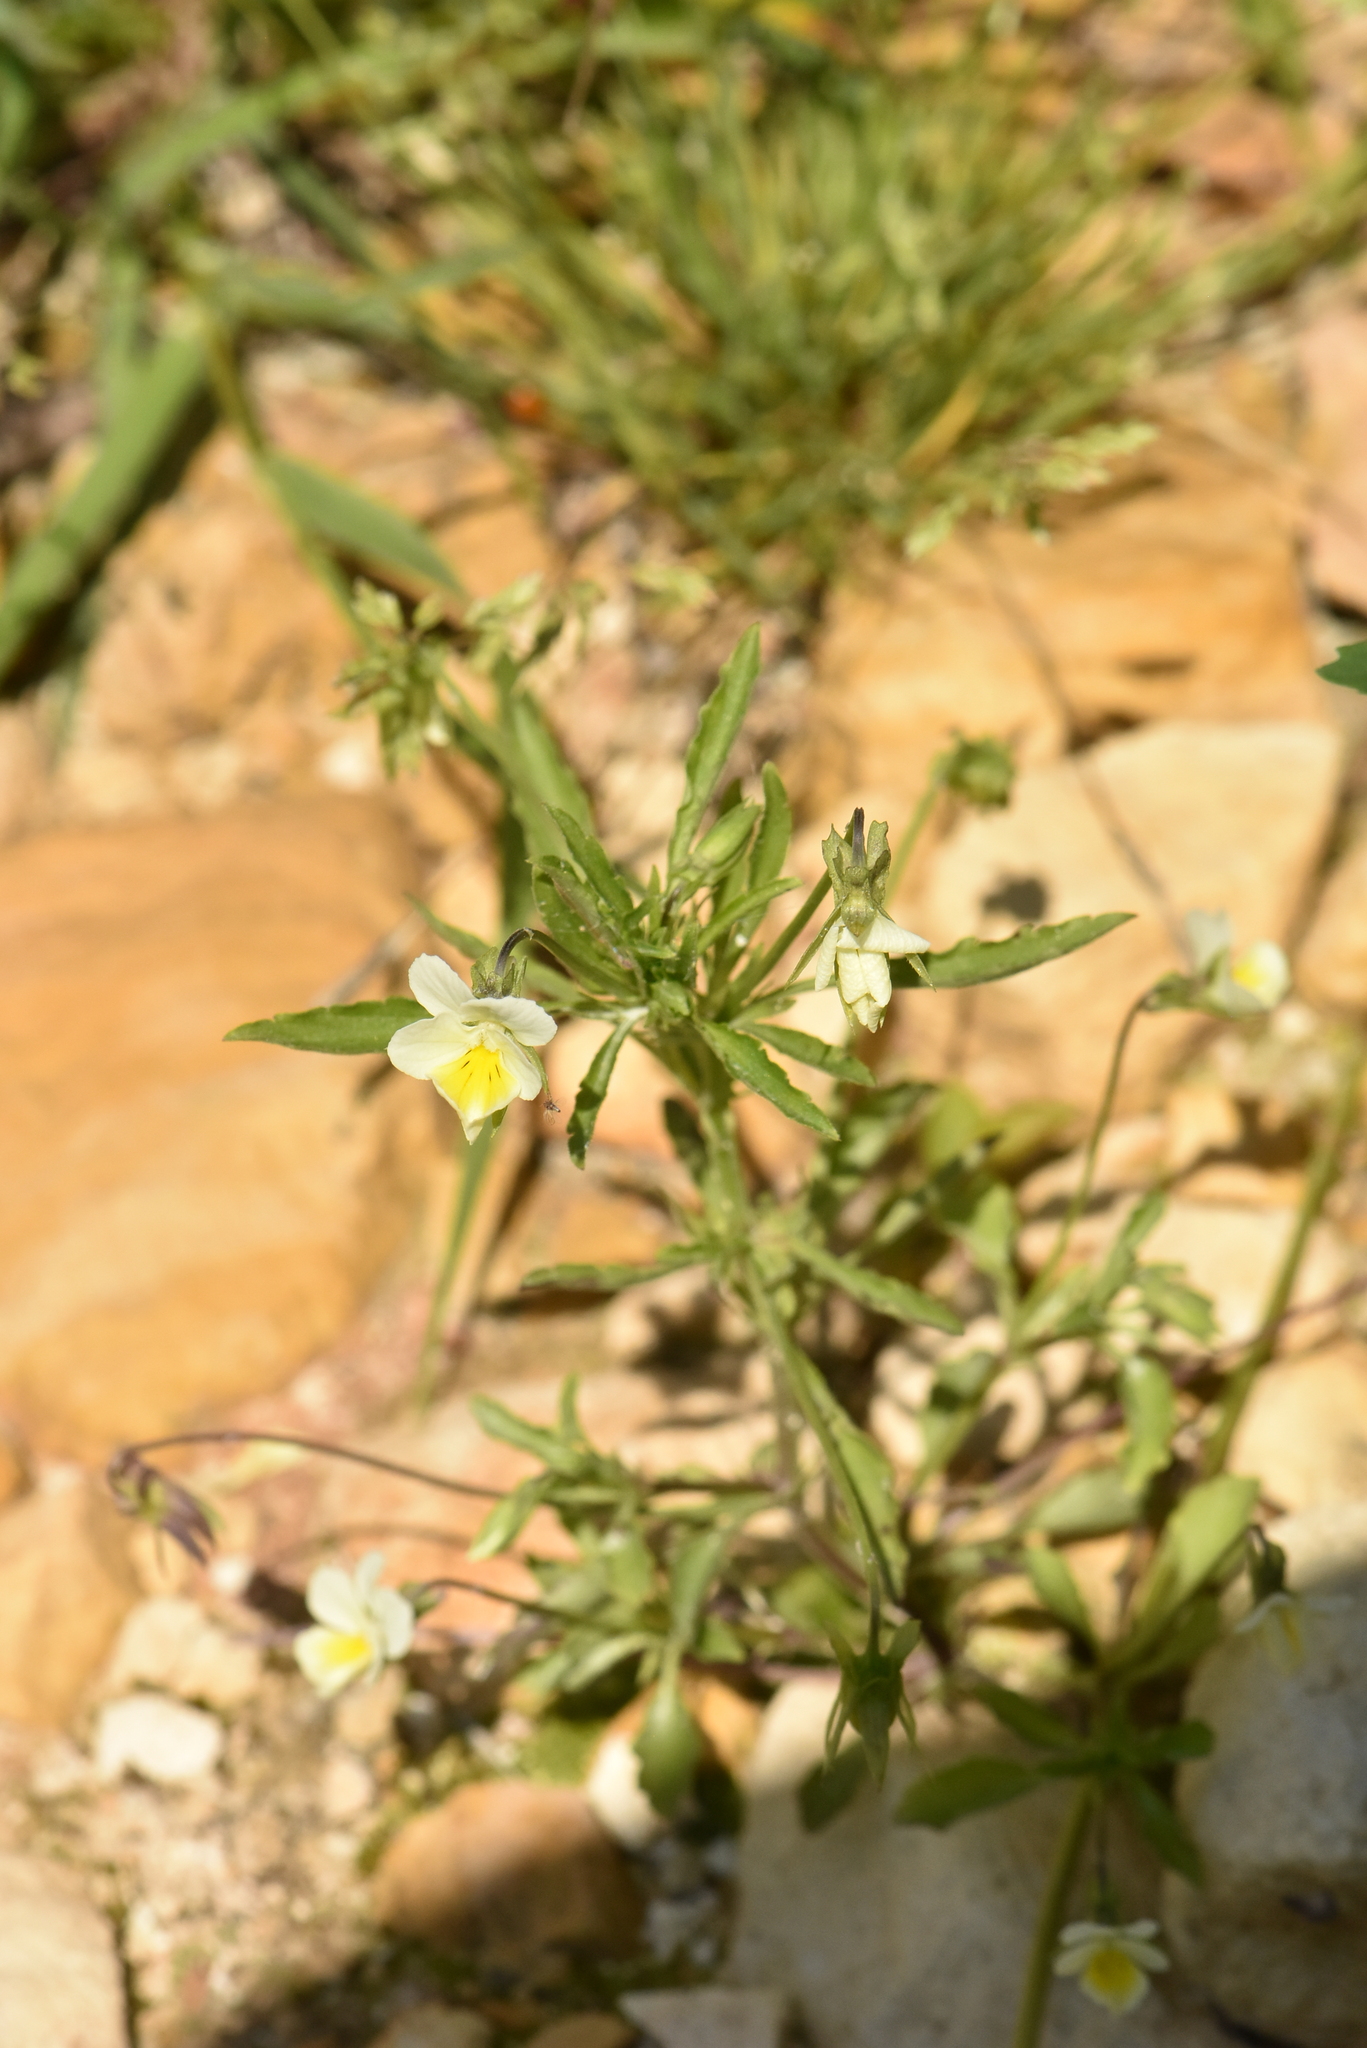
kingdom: Plantae
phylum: Tracheophyta
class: Magnoliopsida
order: Malpighiales
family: Violaceae
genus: Viola
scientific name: Viola arvensis
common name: Field pansy
